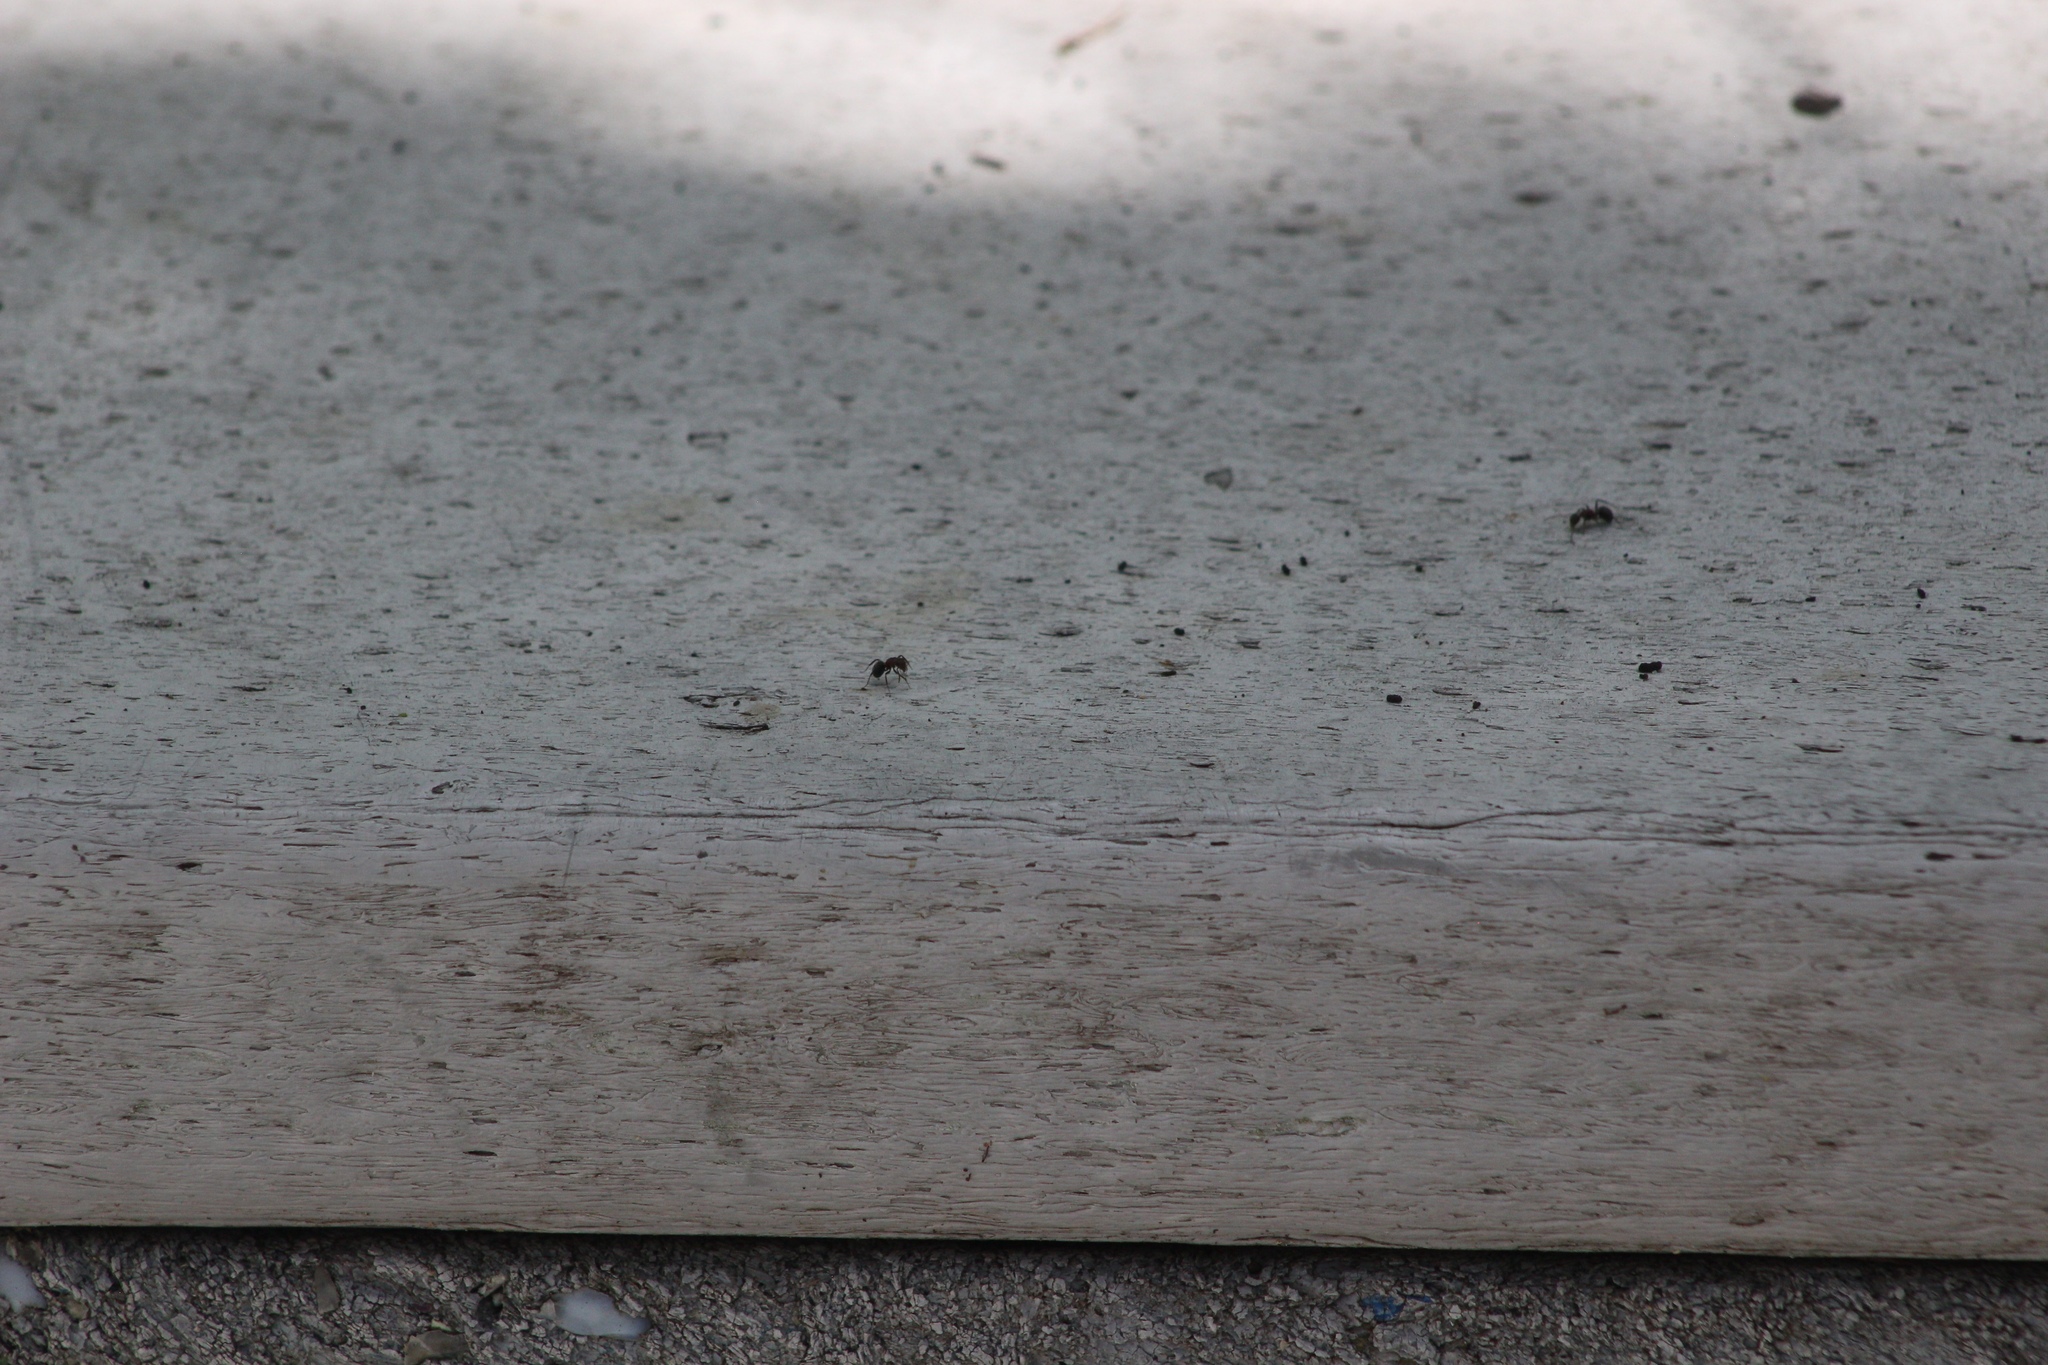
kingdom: Animalia
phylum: Arthropoda
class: Insecta
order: Hymenoptera
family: Formicidae
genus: Camponotus
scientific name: Camponotus planatus
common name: Compact carpenter ant
